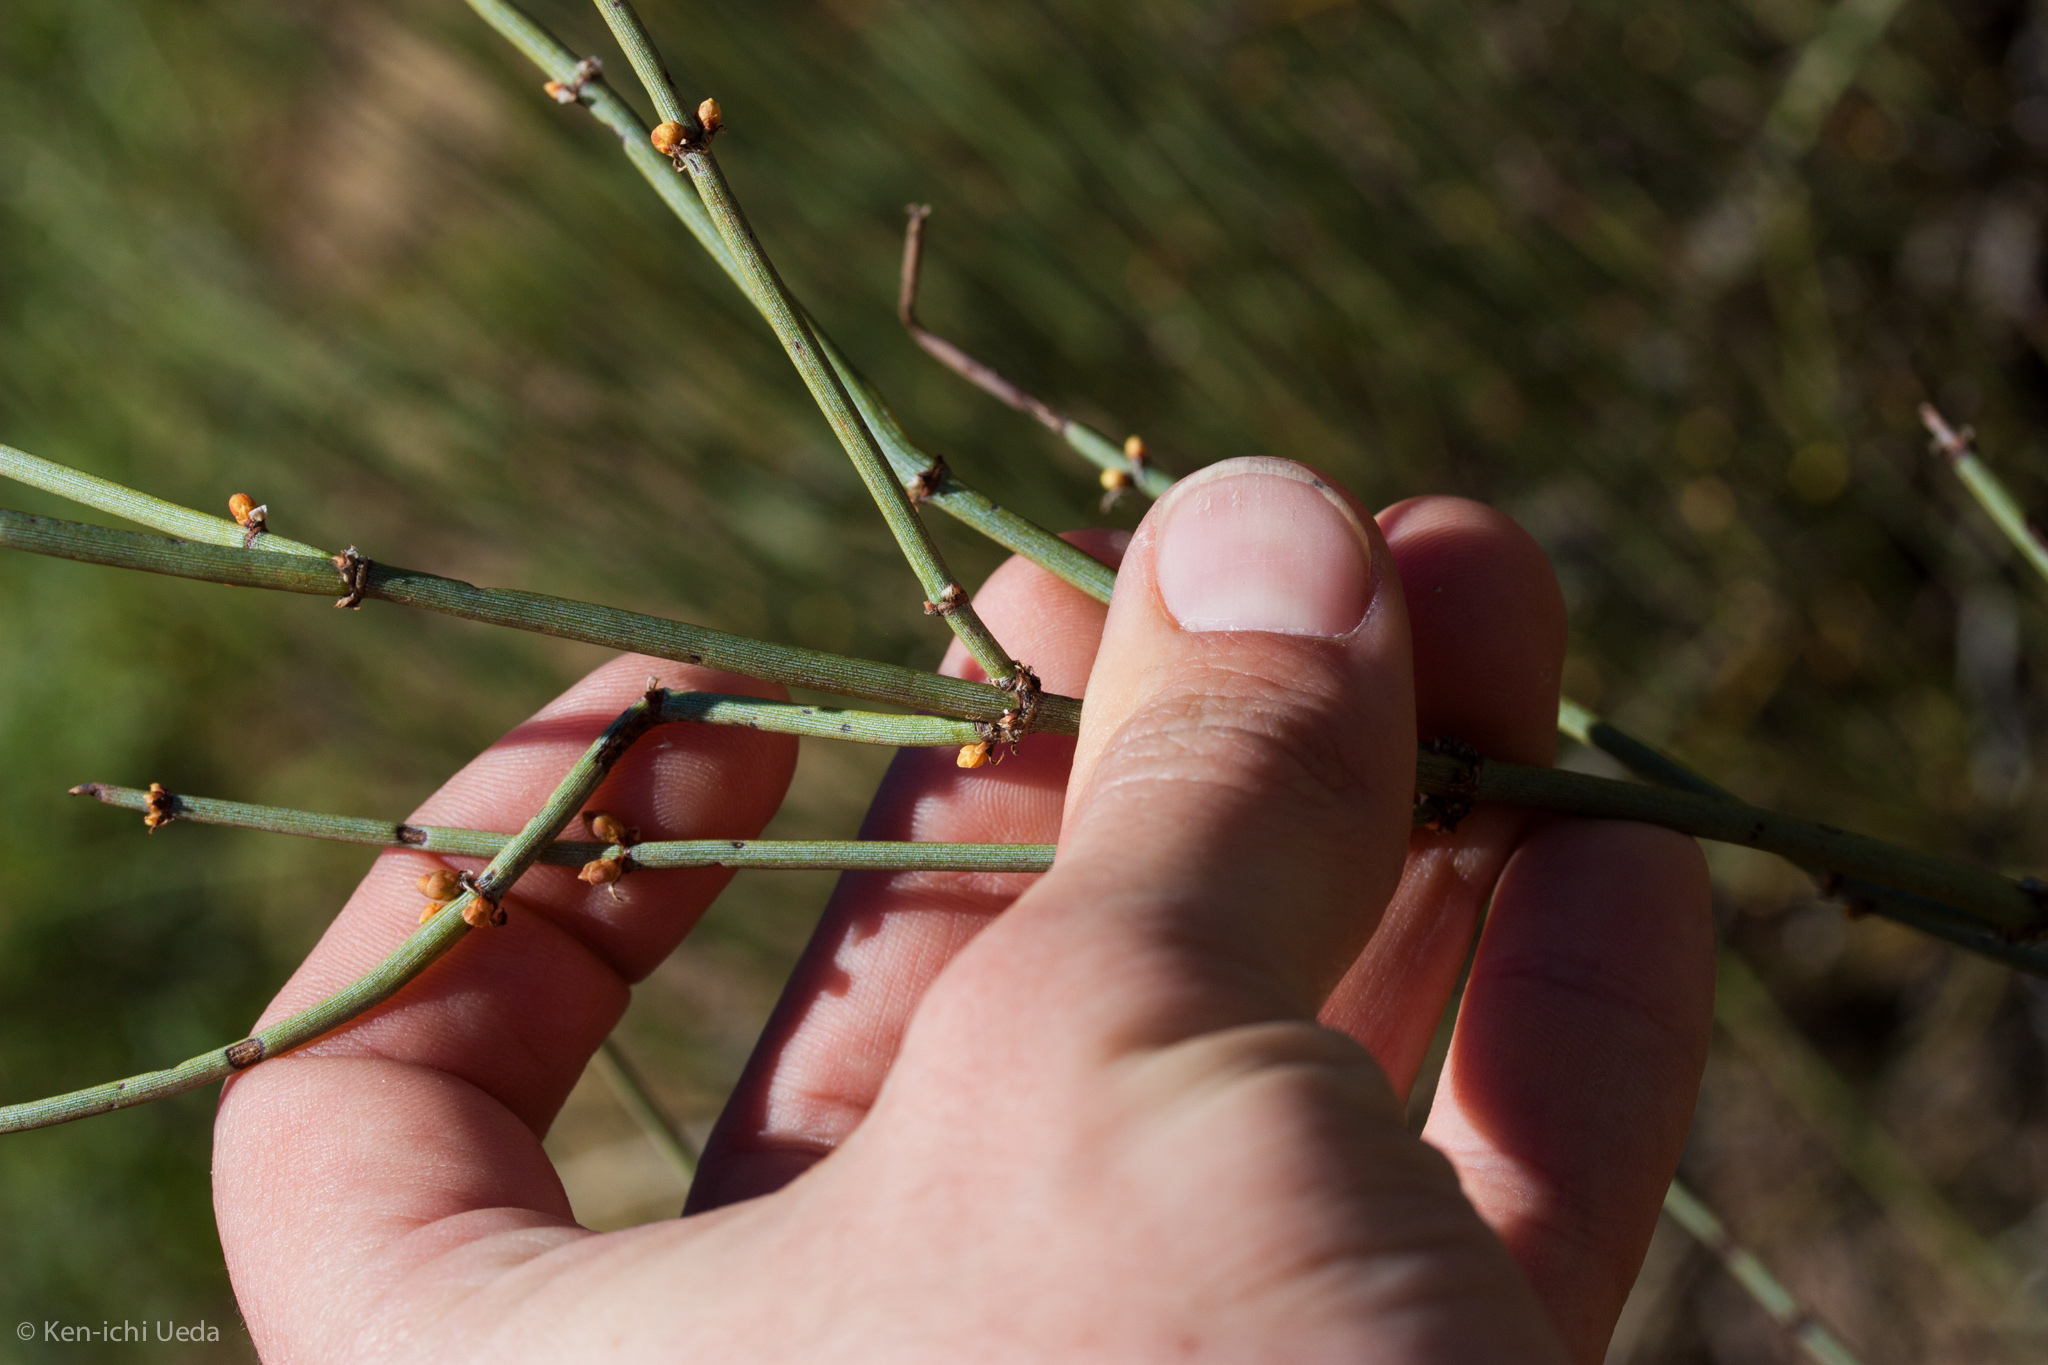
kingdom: Plantae
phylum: Tracheophyta
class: Gnetopsida
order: Ephedrales
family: Ephedraceae
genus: Ephedra
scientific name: Ephedra californica
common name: California ephedra
